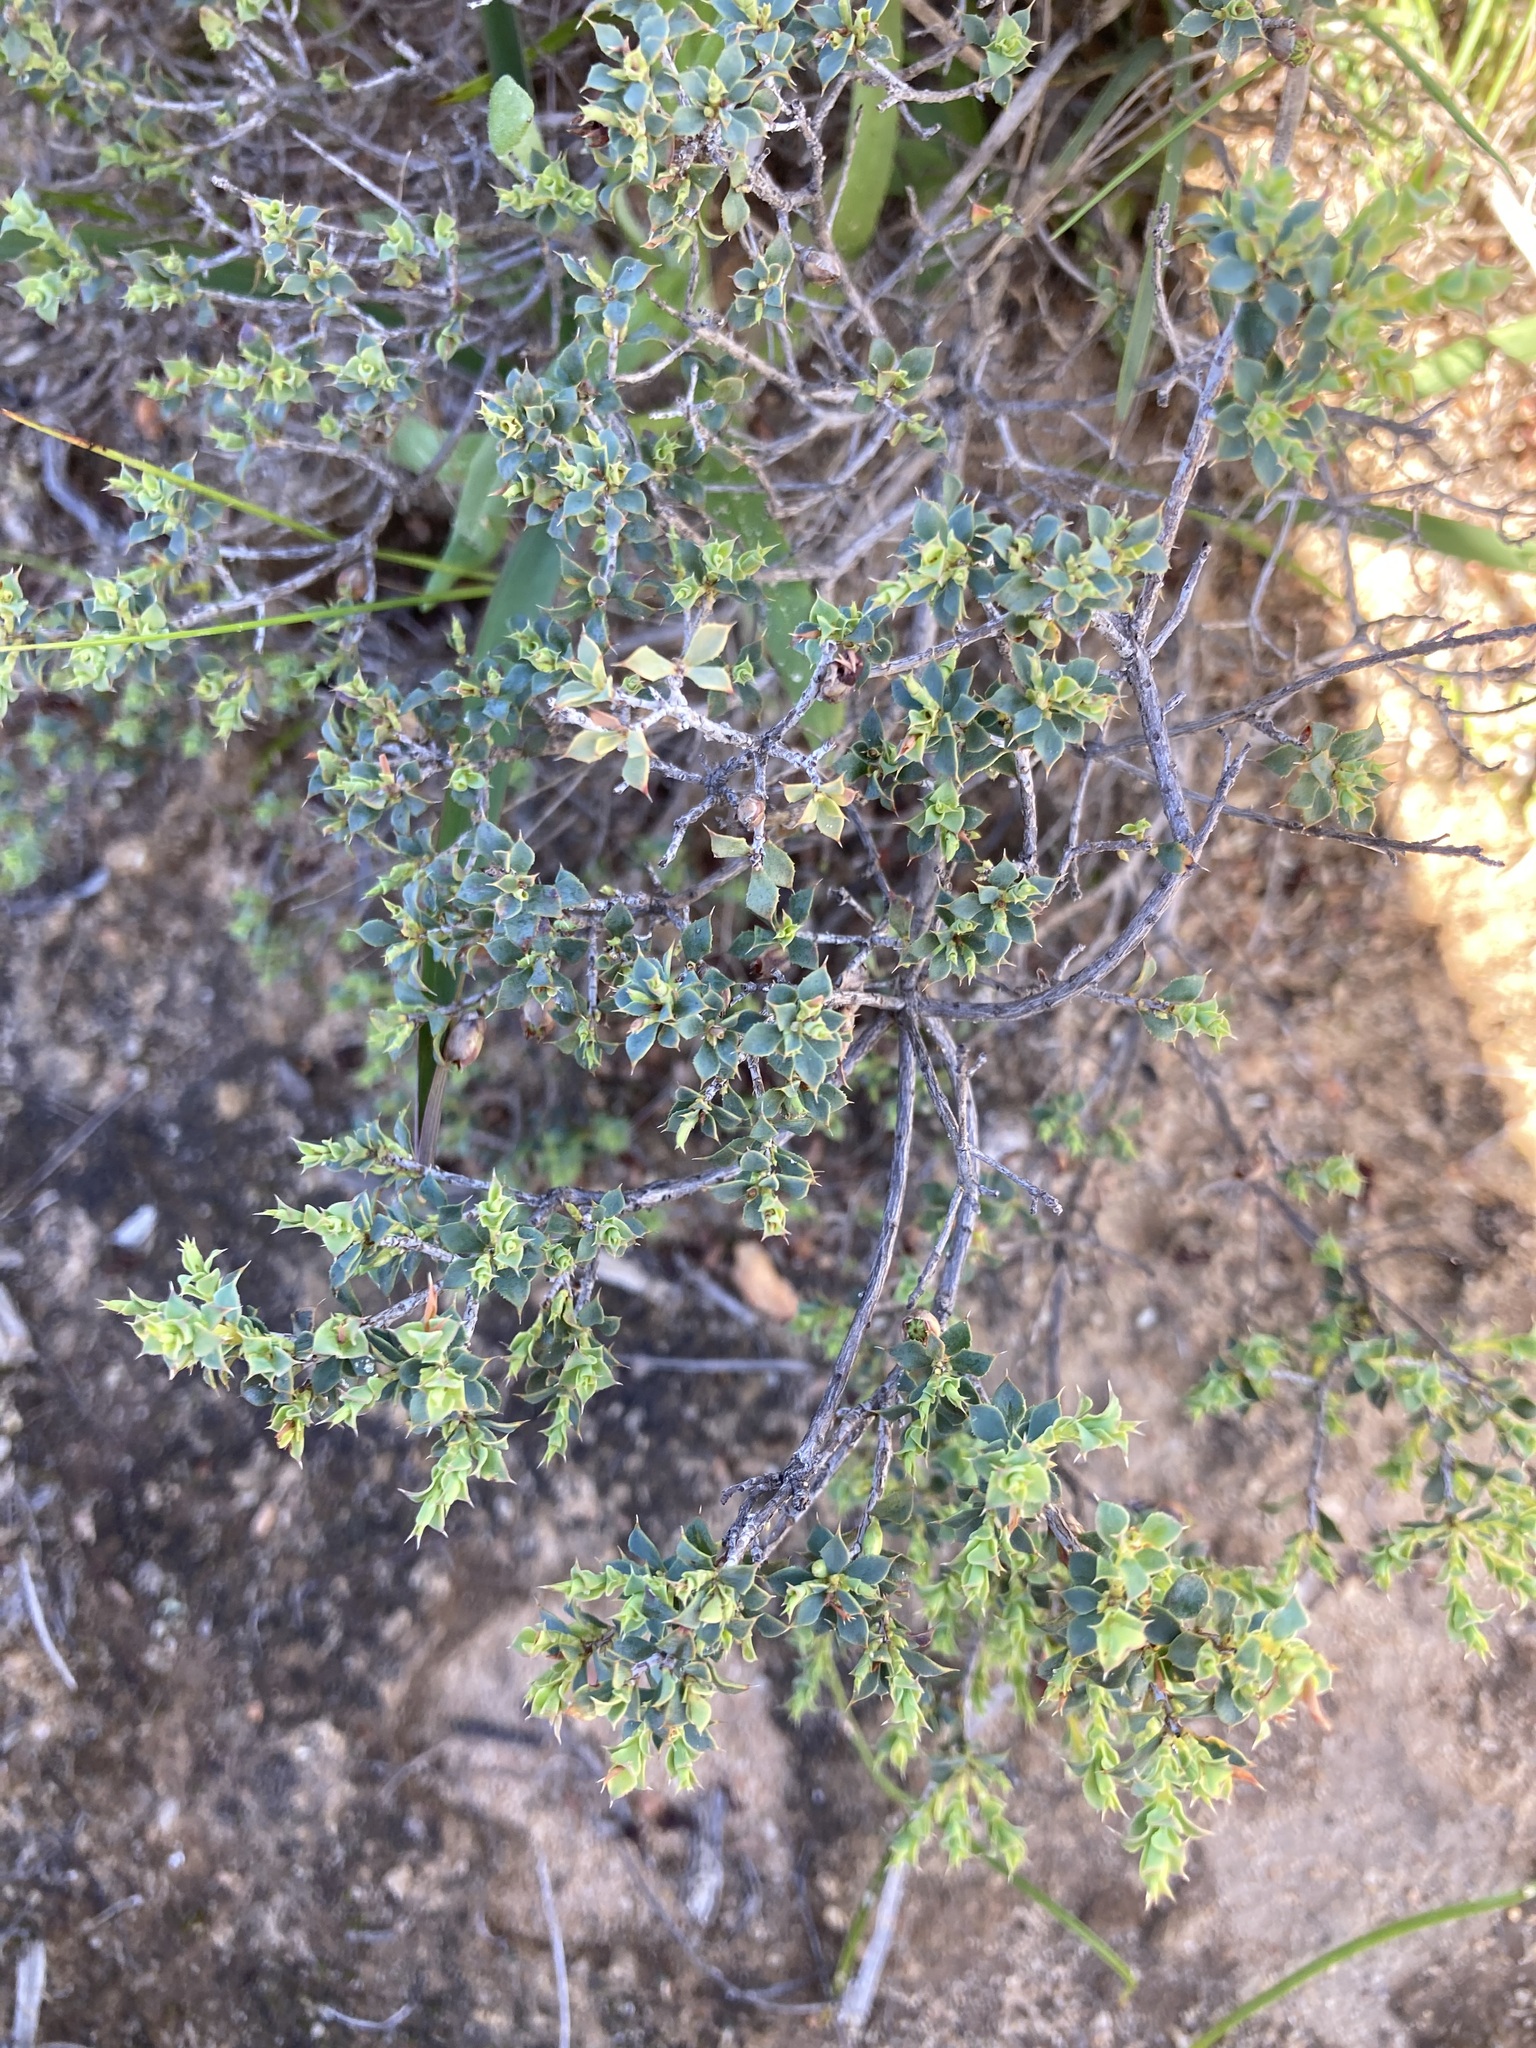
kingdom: Plantae
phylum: Tracheophyta
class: Magnoliopsida
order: Ericales
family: Ericaceae
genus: Styphelia
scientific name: Styphelia serratifolia
